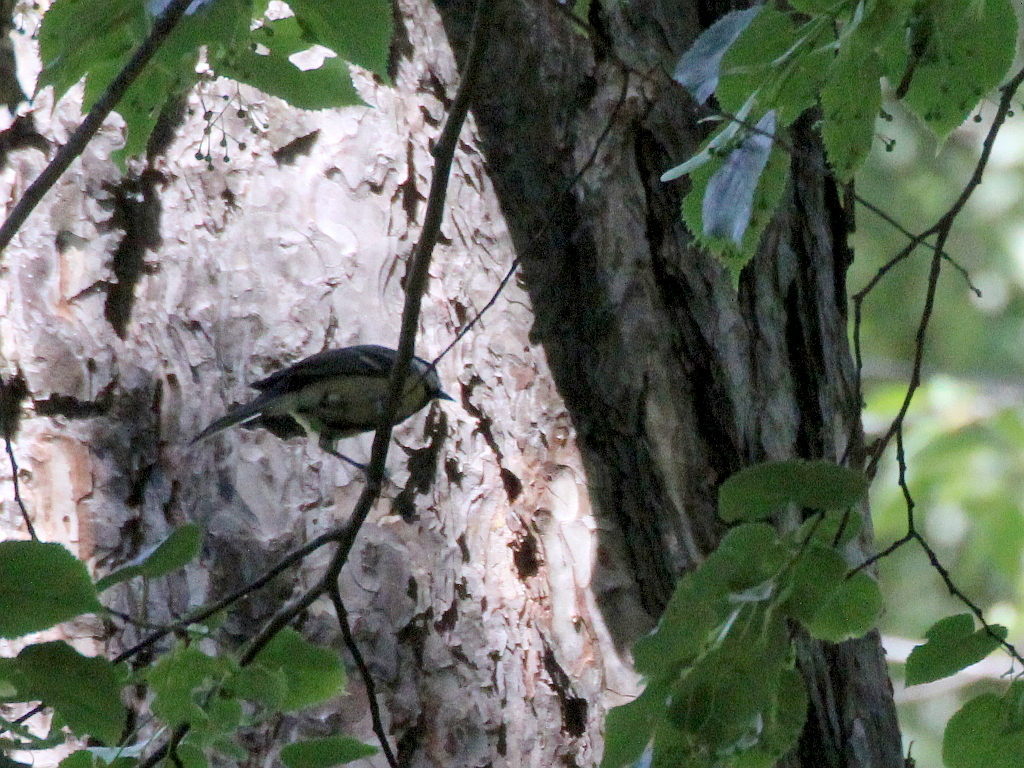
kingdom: Animalia
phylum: Chordata
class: Aves
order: Passeriformes
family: Paridae
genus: Parus
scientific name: Parus major
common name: Great tit
